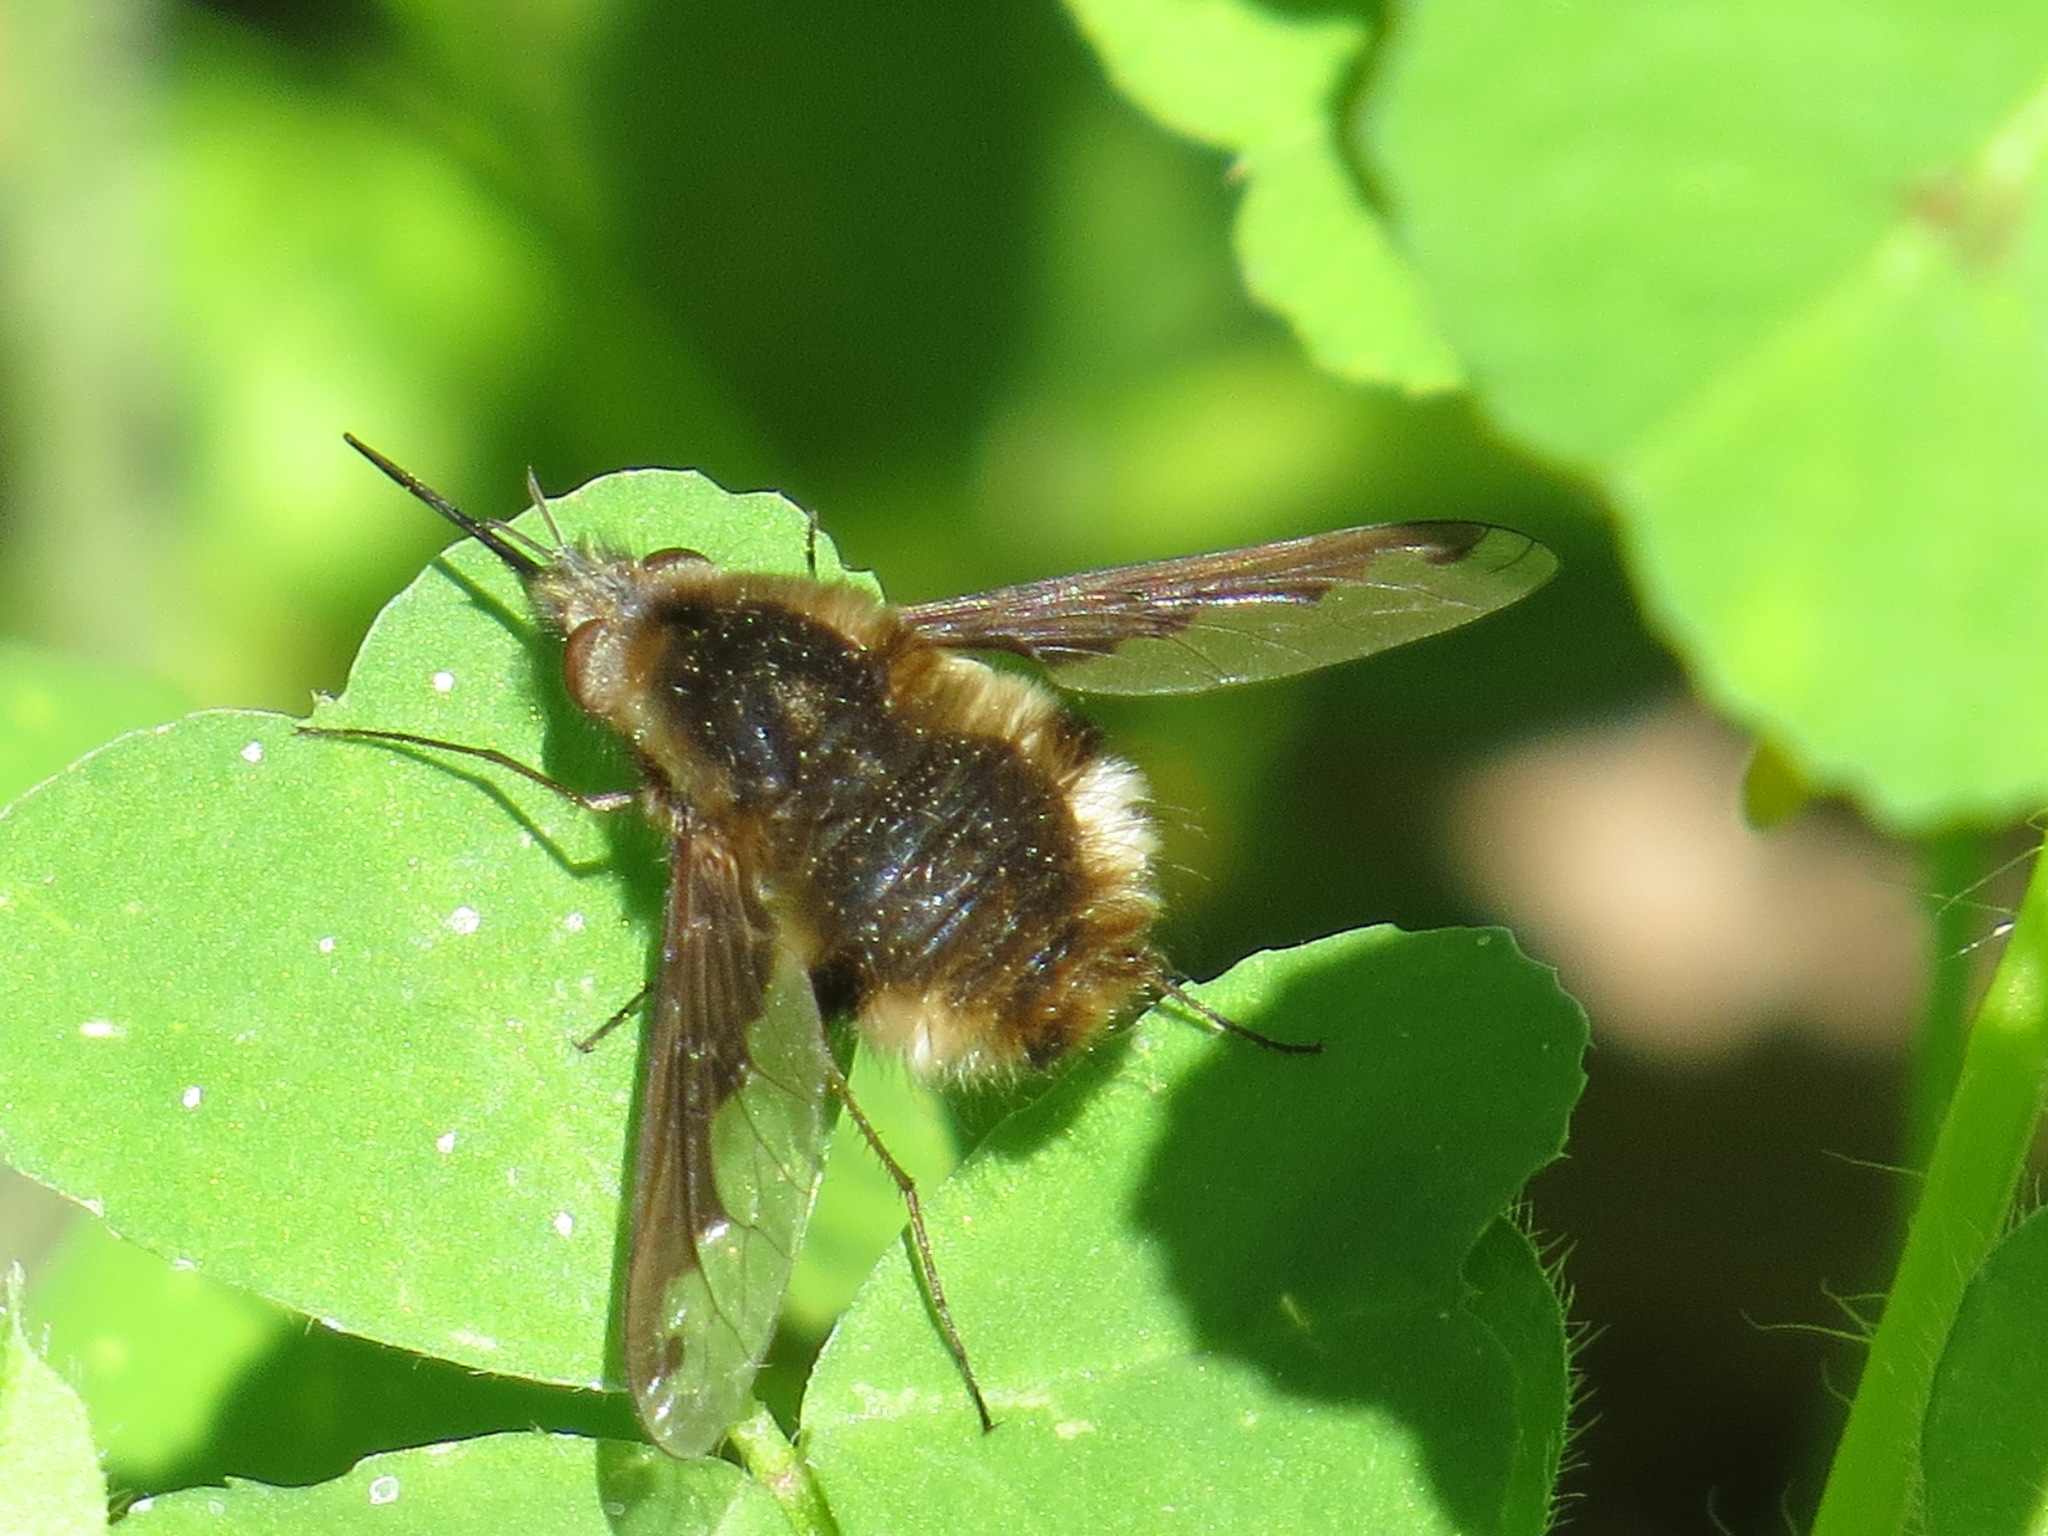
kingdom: Animalia
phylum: Arthropoda
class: Insecta
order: Diptera
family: Bombyliidae
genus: Bombylius
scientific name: Bombylius major
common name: Bee fly
